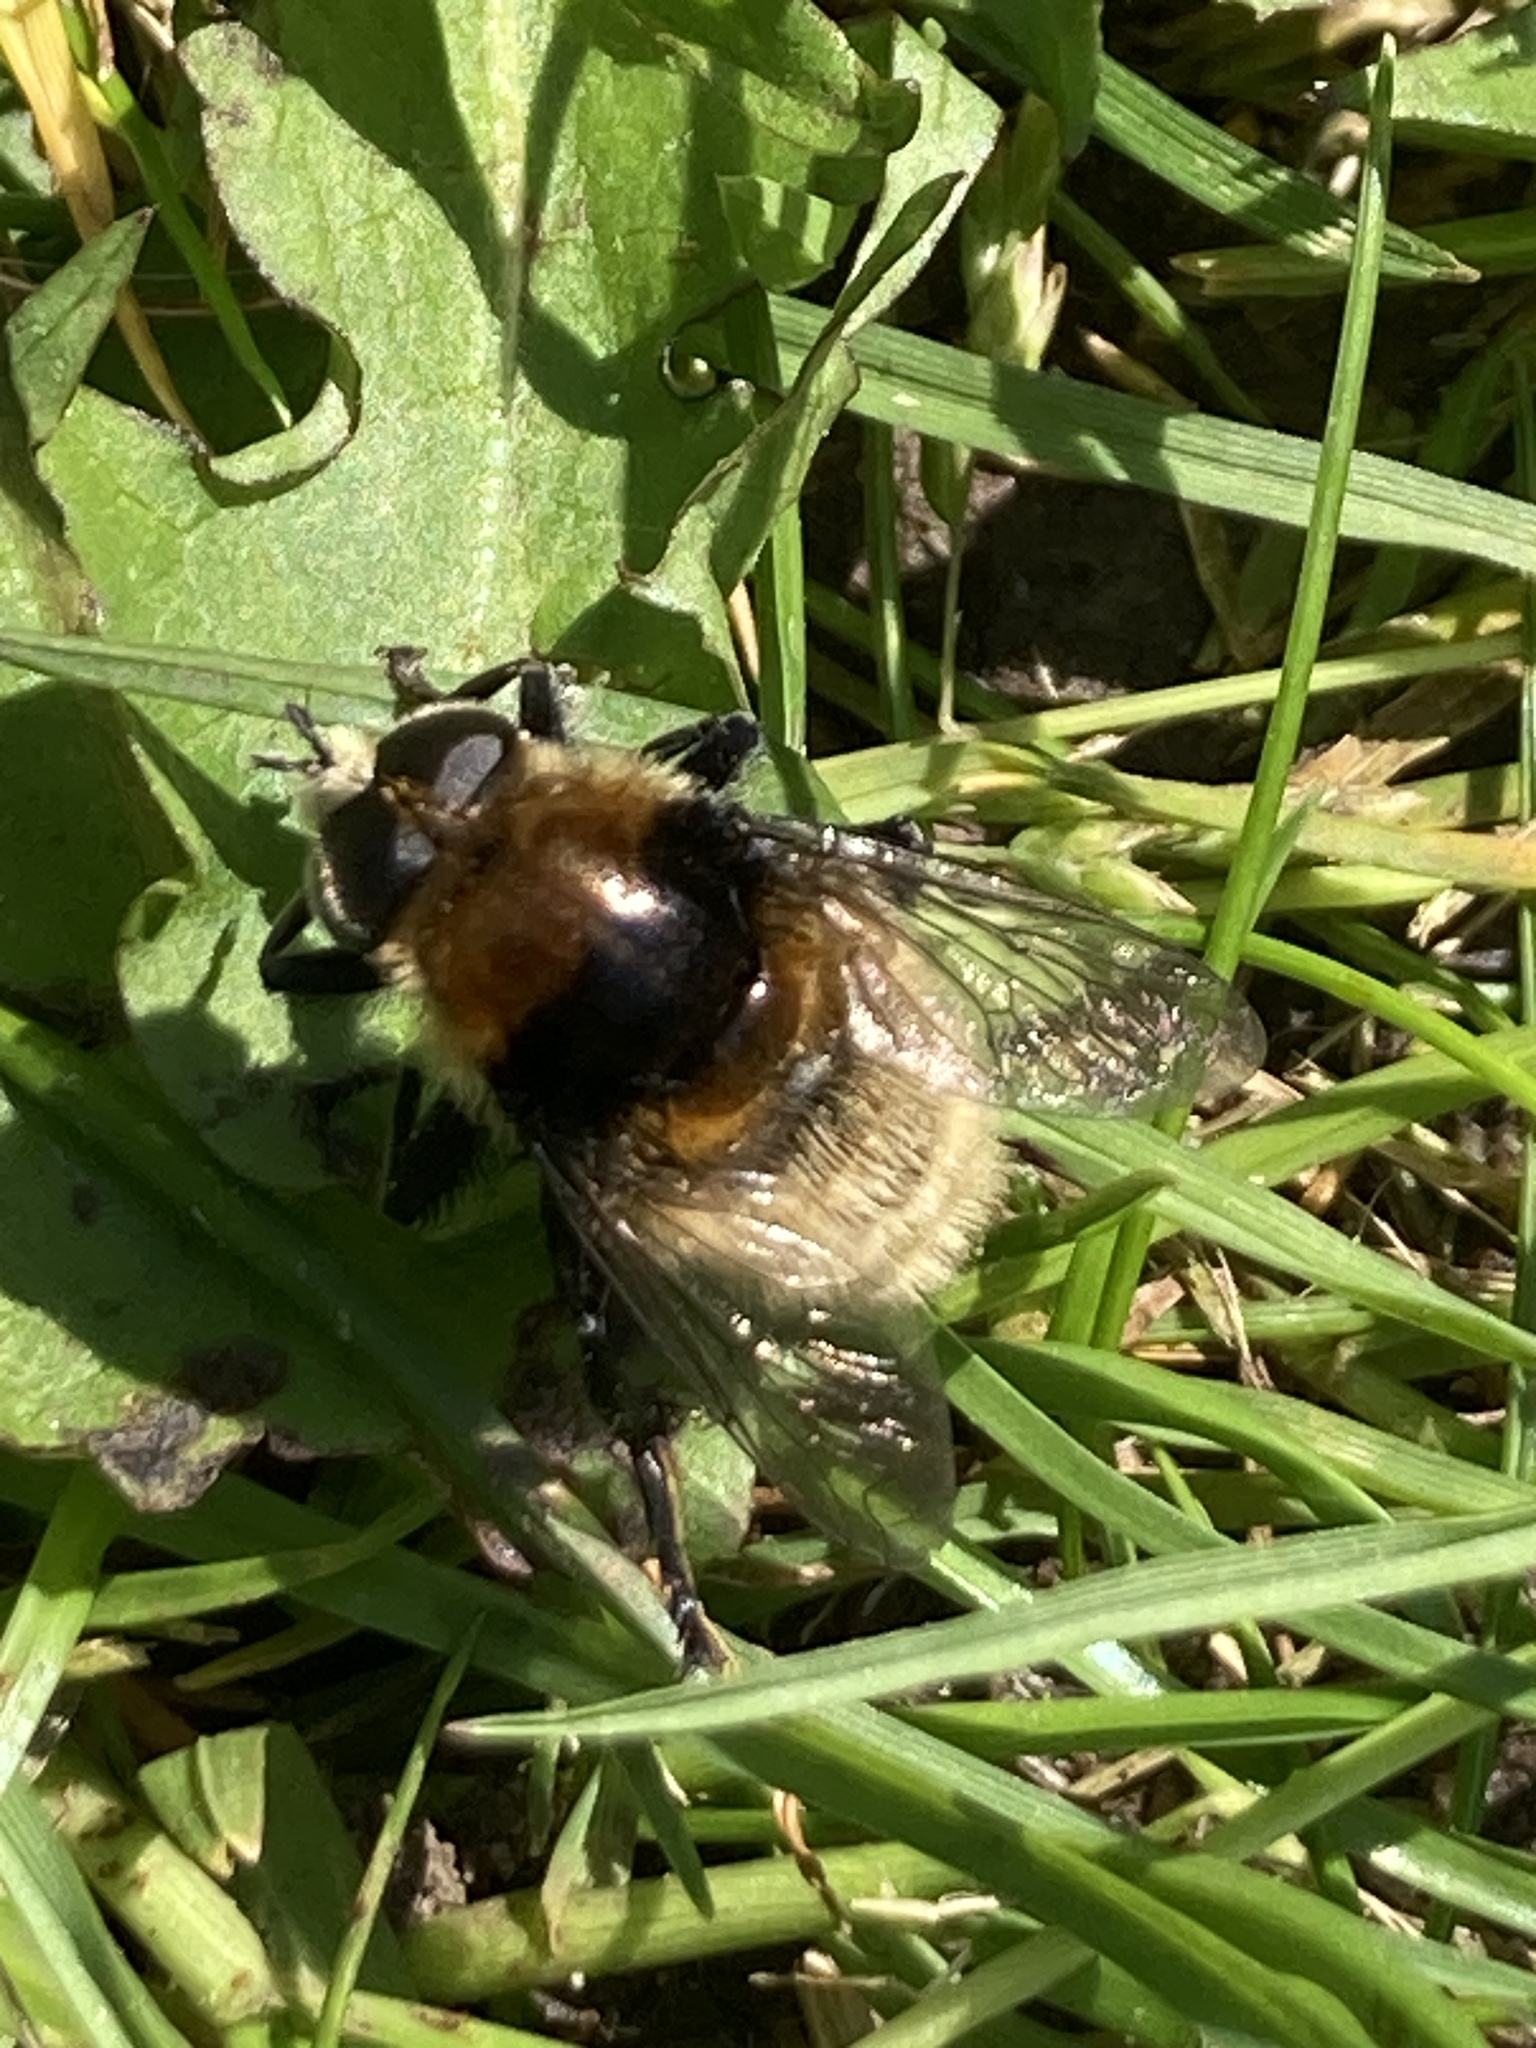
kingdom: Animalia
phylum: Arthropoda
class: Insecta
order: Diptera
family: Syrphidae
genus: Merodon
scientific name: Merodon equestris
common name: Greater bulb-fly
